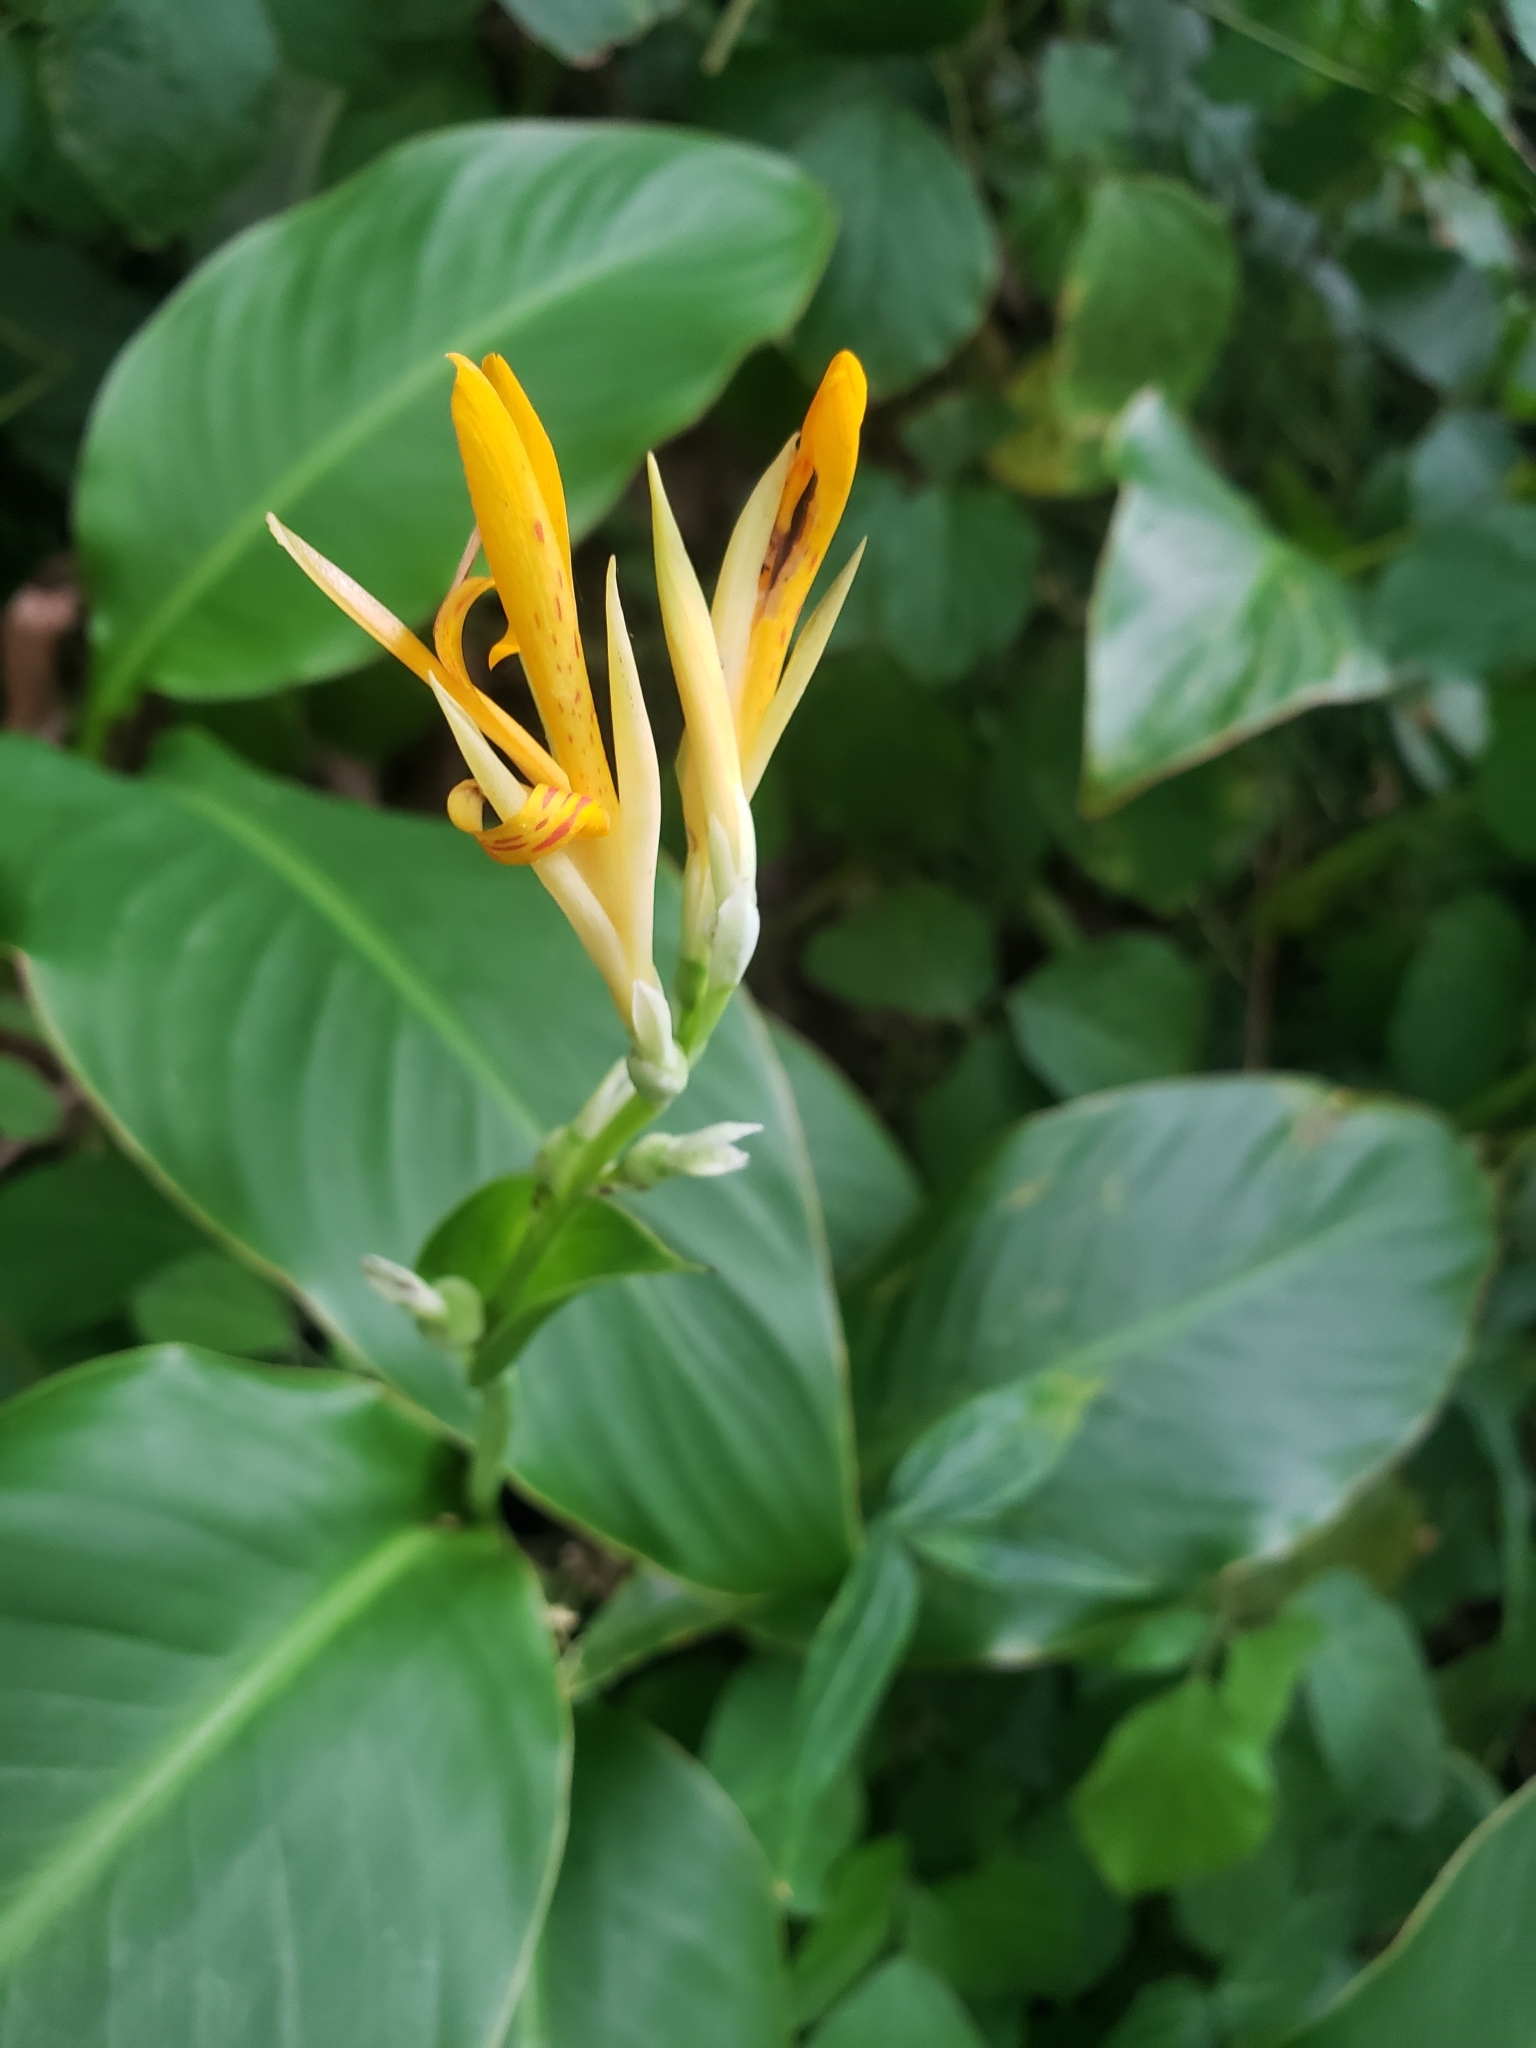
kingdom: Plantae
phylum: Tracheophyta
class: Liliopsida
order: Zingiberales
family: Cannaceae
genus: Canna
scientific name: Canna indica
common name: Indian shot
